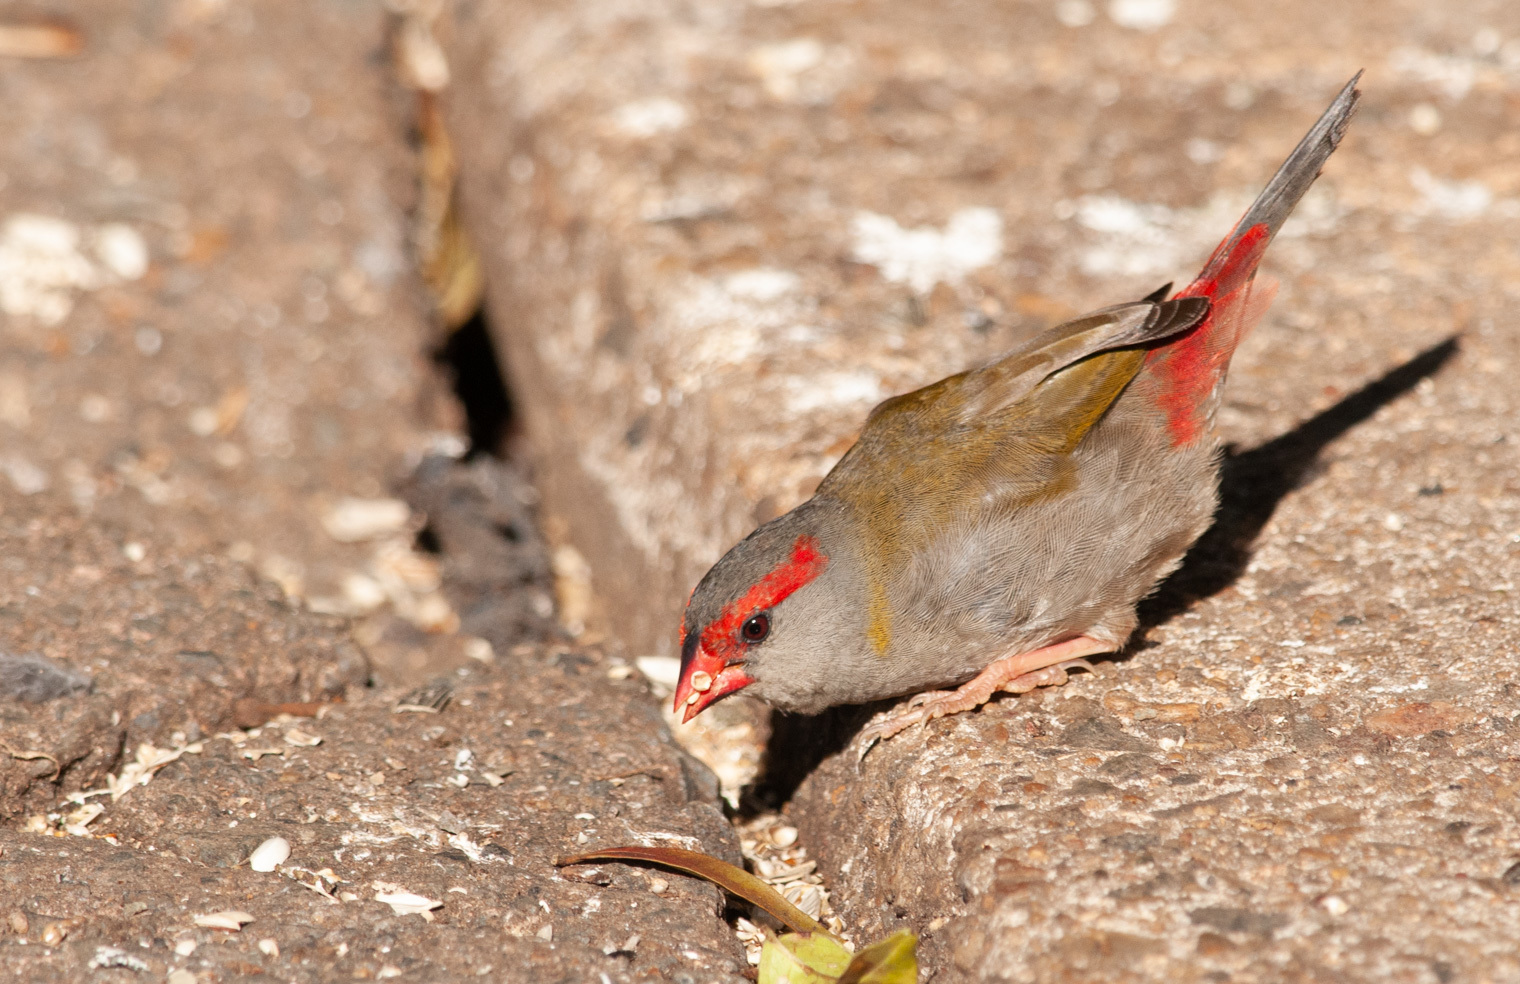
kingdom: Animalia
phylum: Chordata
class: Aves
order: Passeriformes
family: Estrildidae
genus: Neochmia
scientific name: Neochmia temporalis
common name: Red-browed finch
